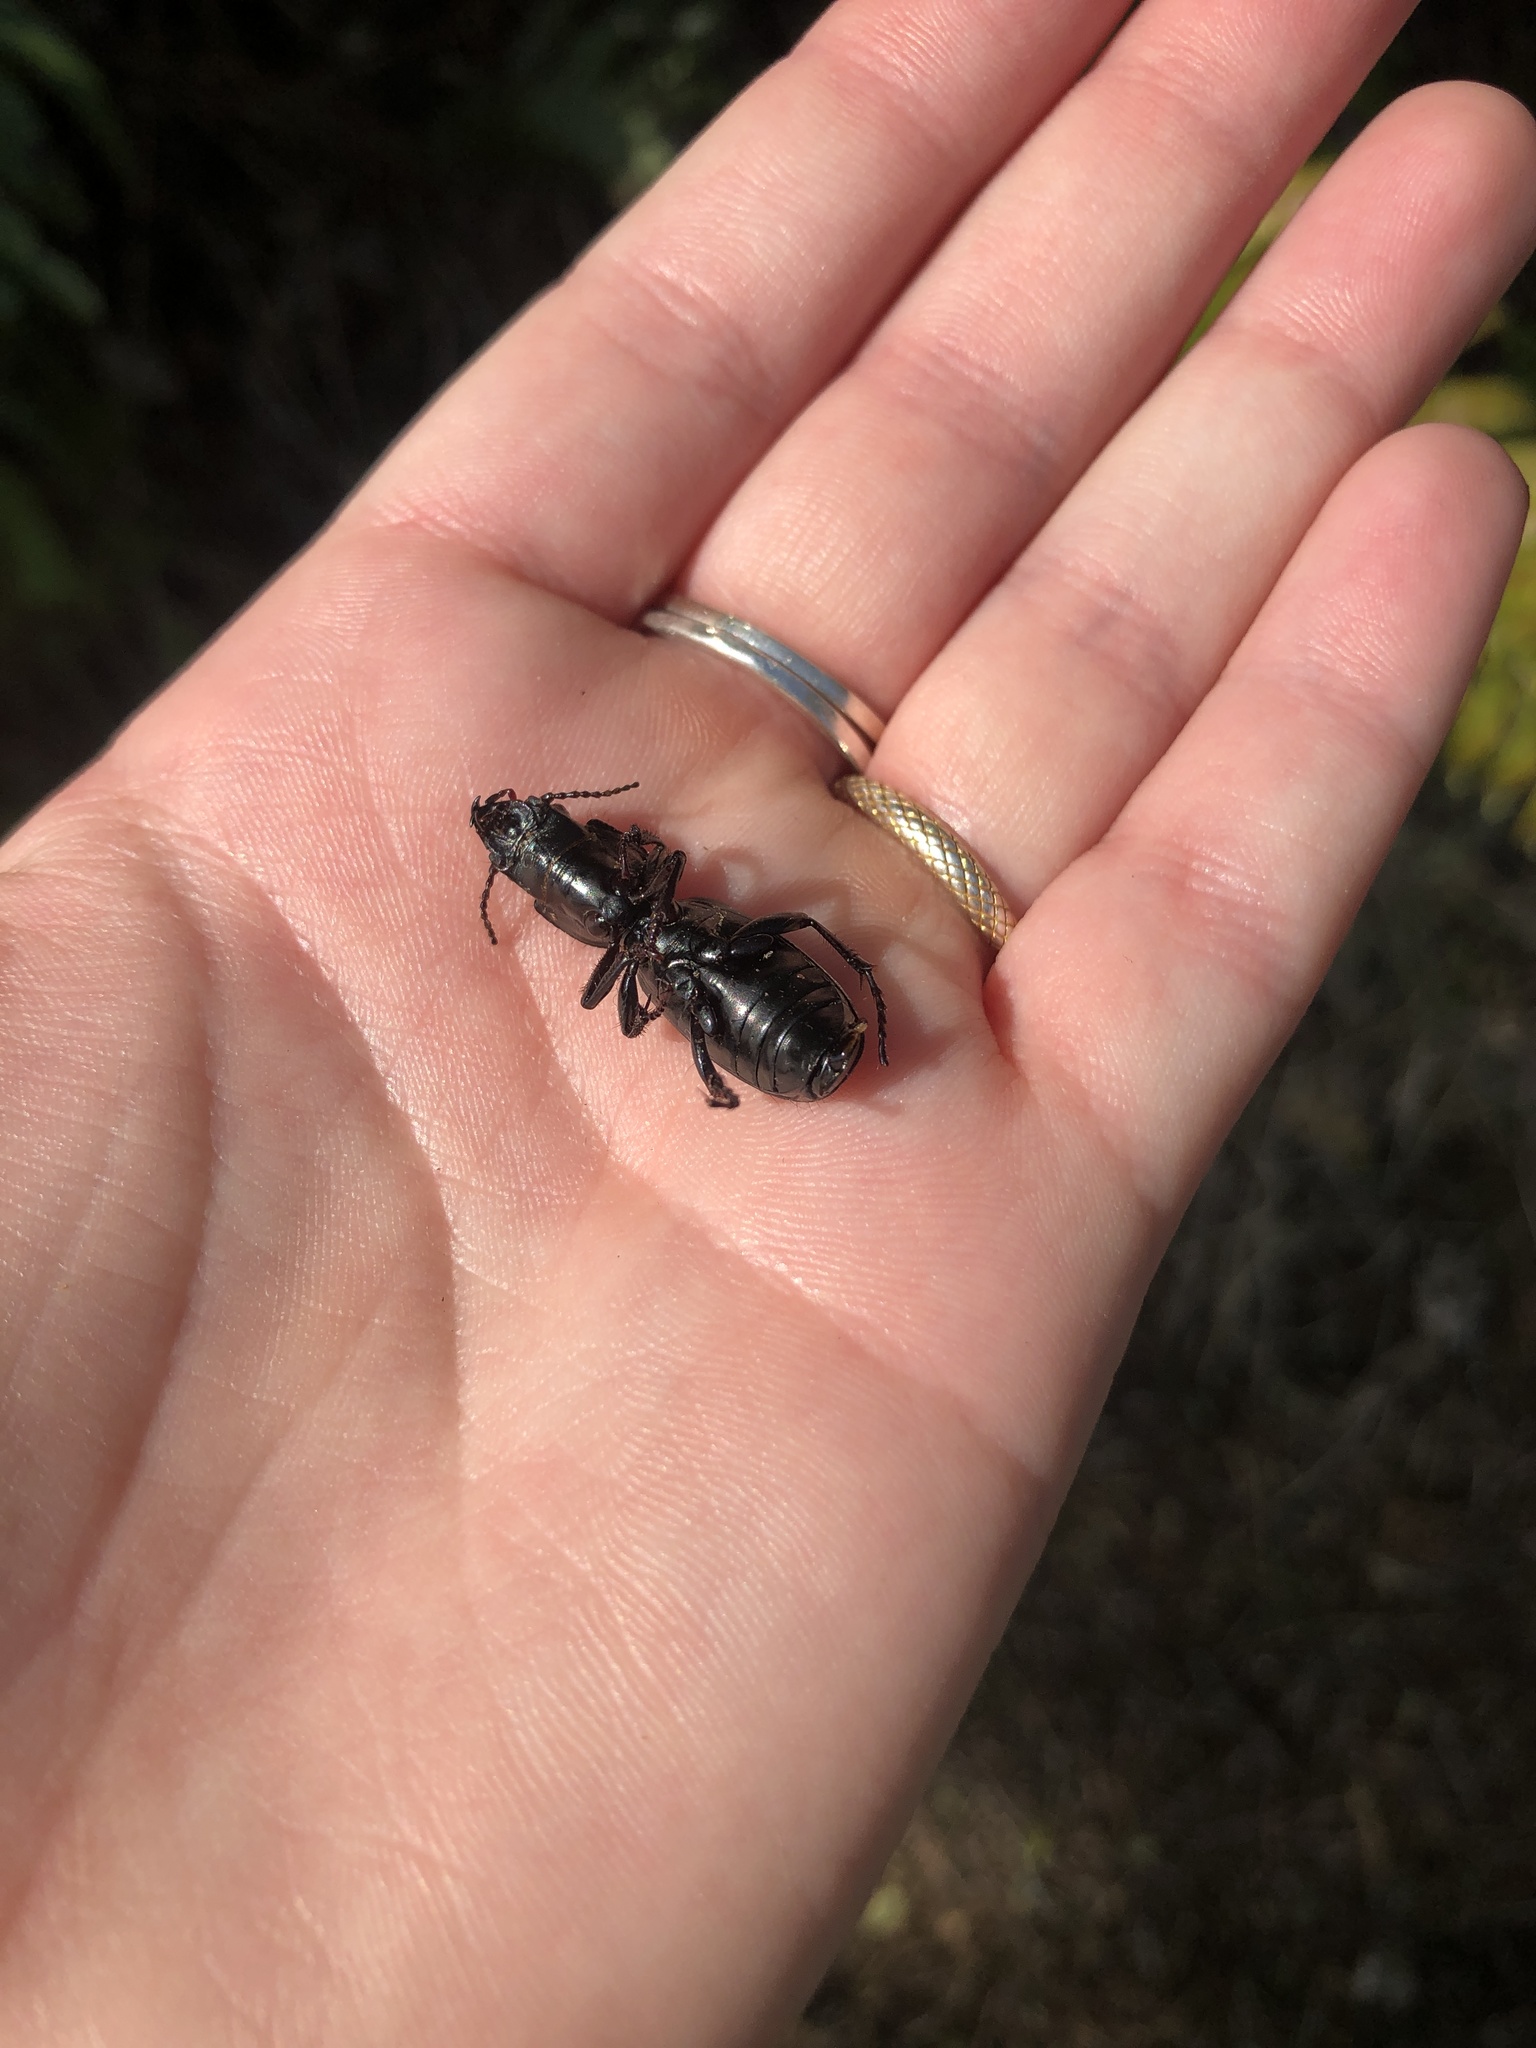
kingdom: Animalia
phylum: Arthropoda
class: Insecta
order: Coleoptera
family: Carabidae
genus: Mecodema
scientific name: Mecodema crenaticolle
